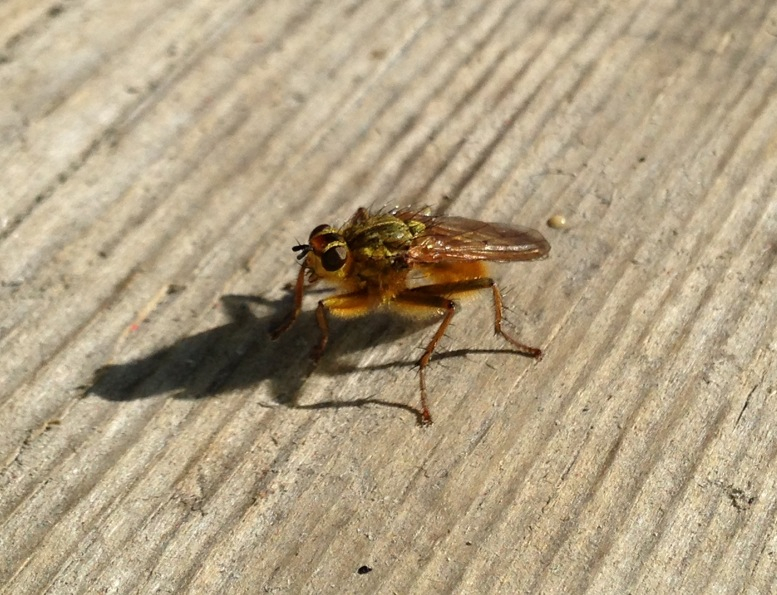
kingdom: Animalia
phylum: Arthropoda
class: Insecta
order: Diptera
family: Scathophagidae
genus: Scathophaga
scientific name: Scathophaga stercoraria
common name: Yellow dung fly
